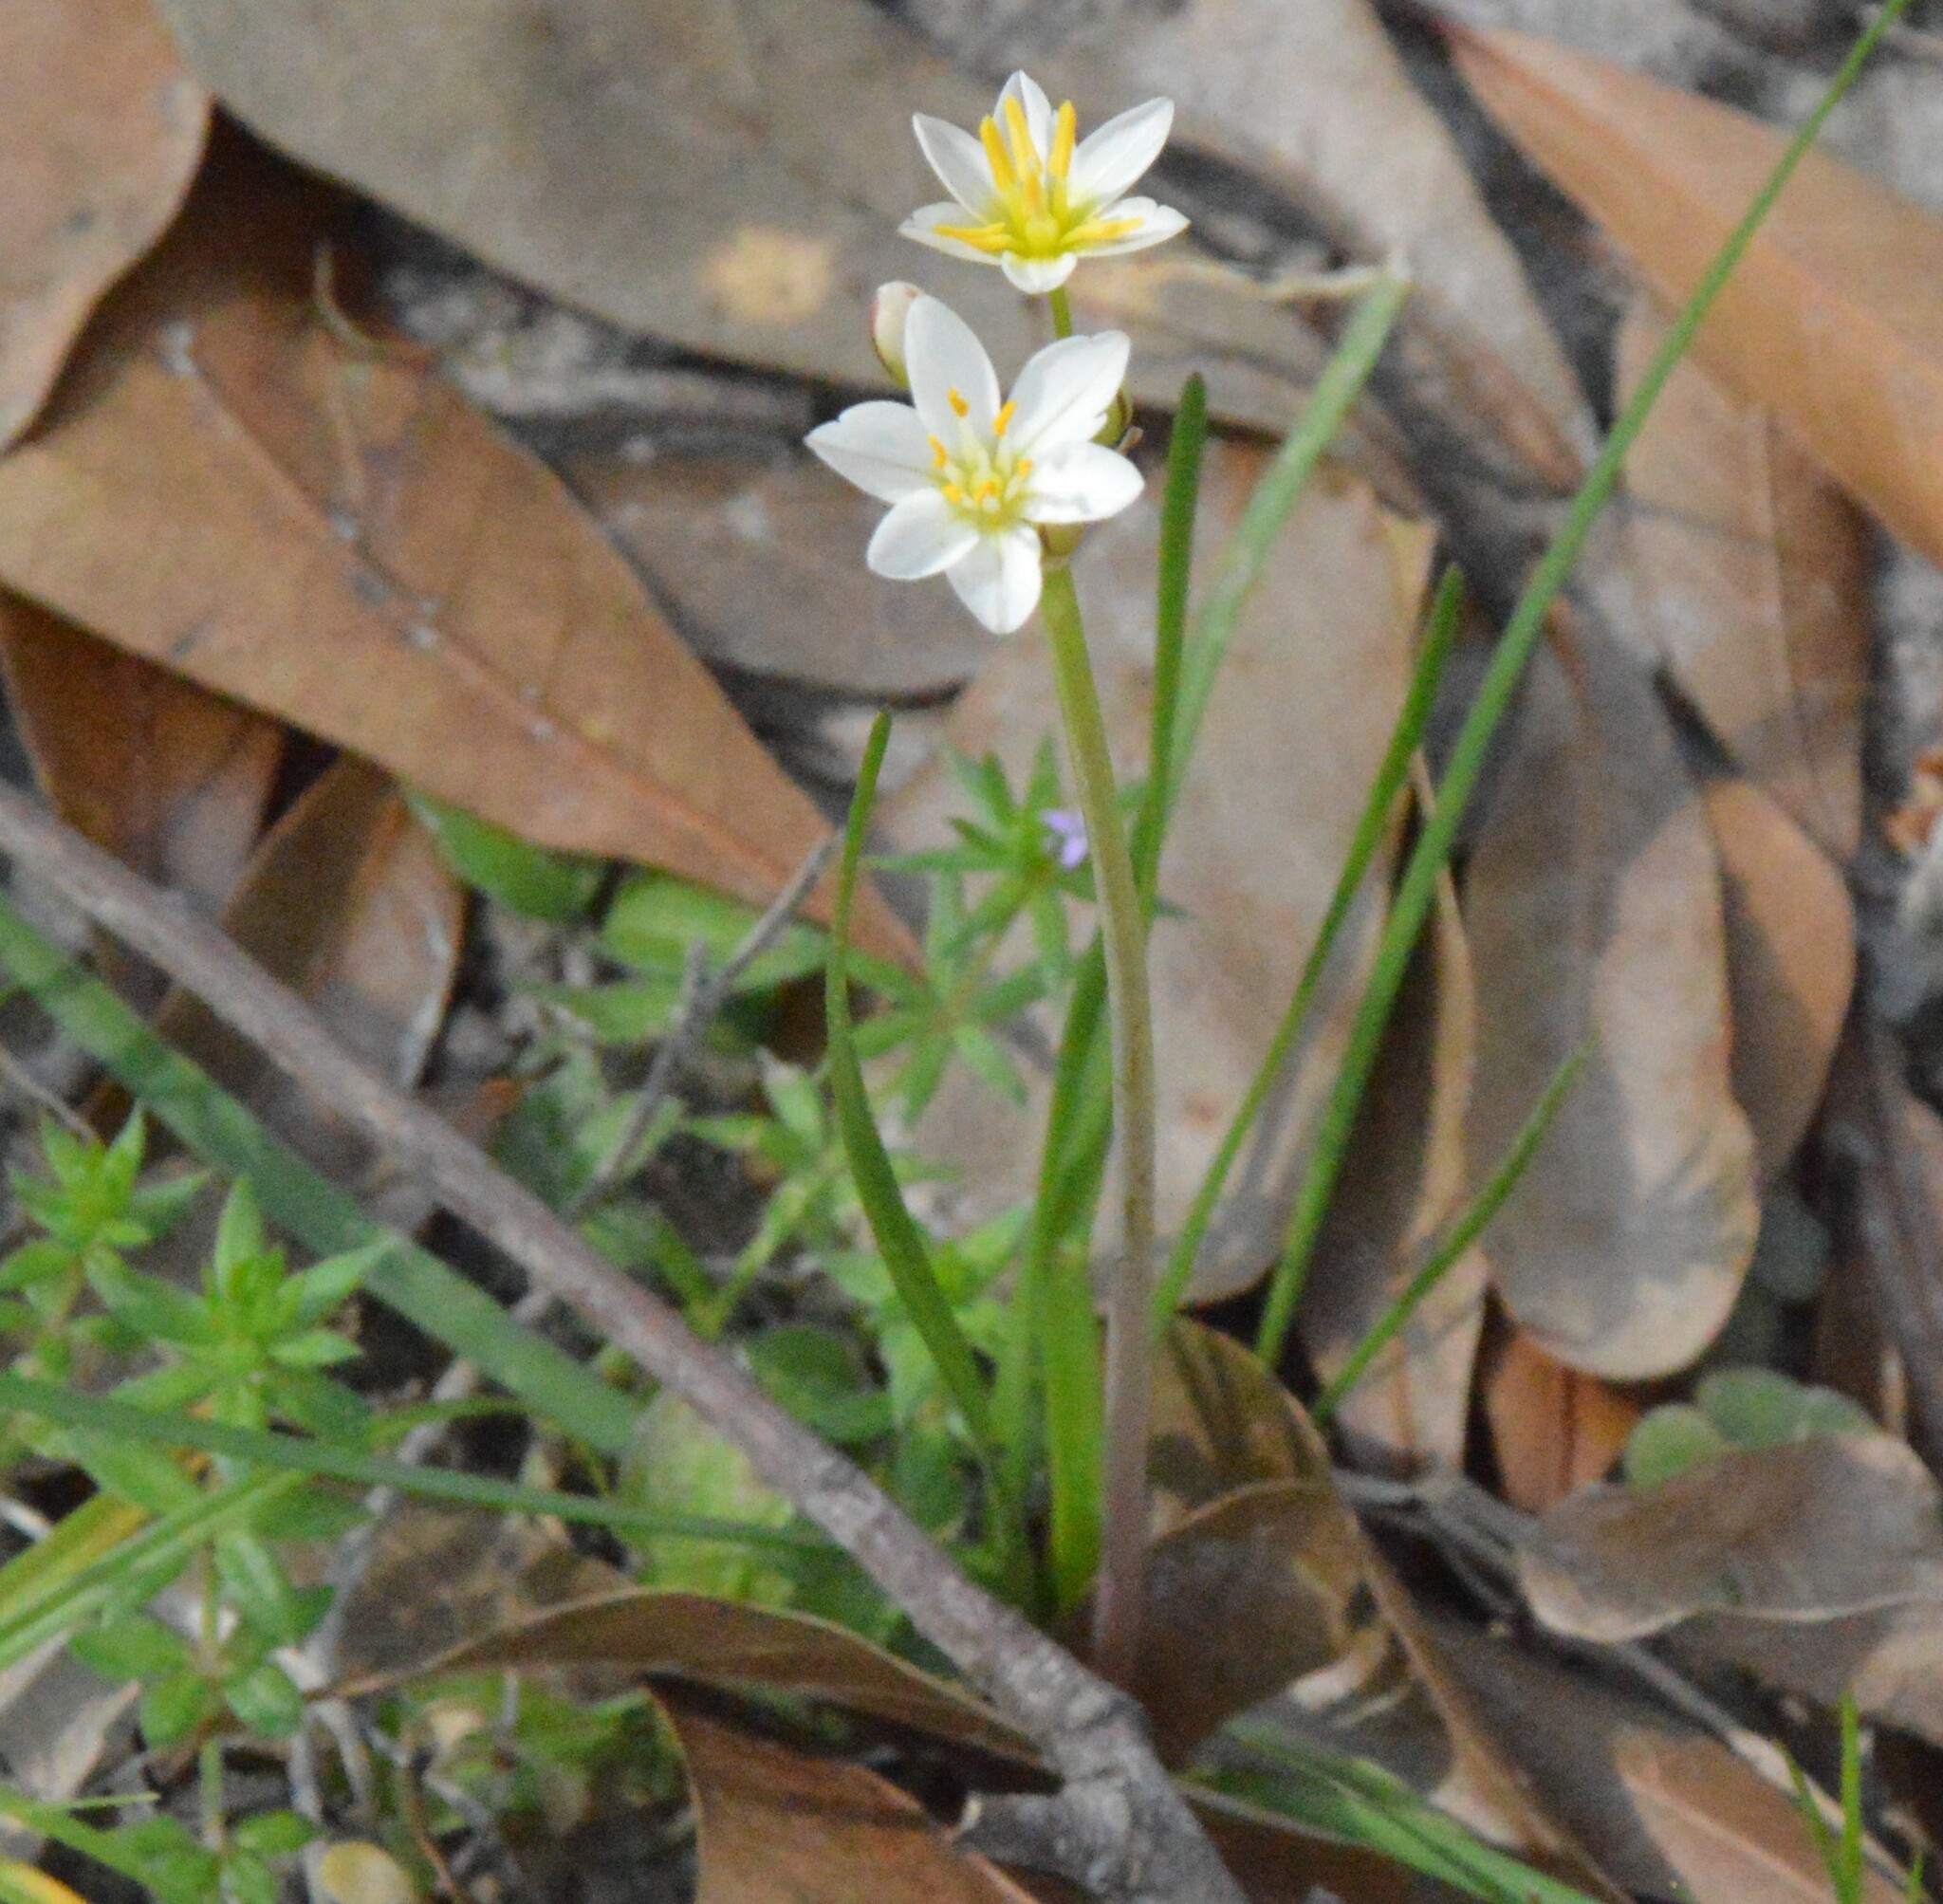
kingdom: Plantae
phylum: Tracheophyta
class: Liliopsida
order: Asparagales
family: Amaryllidaceae
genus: Nothoscordum
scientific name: Nothoscordum bivalve
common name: Crow-poison
